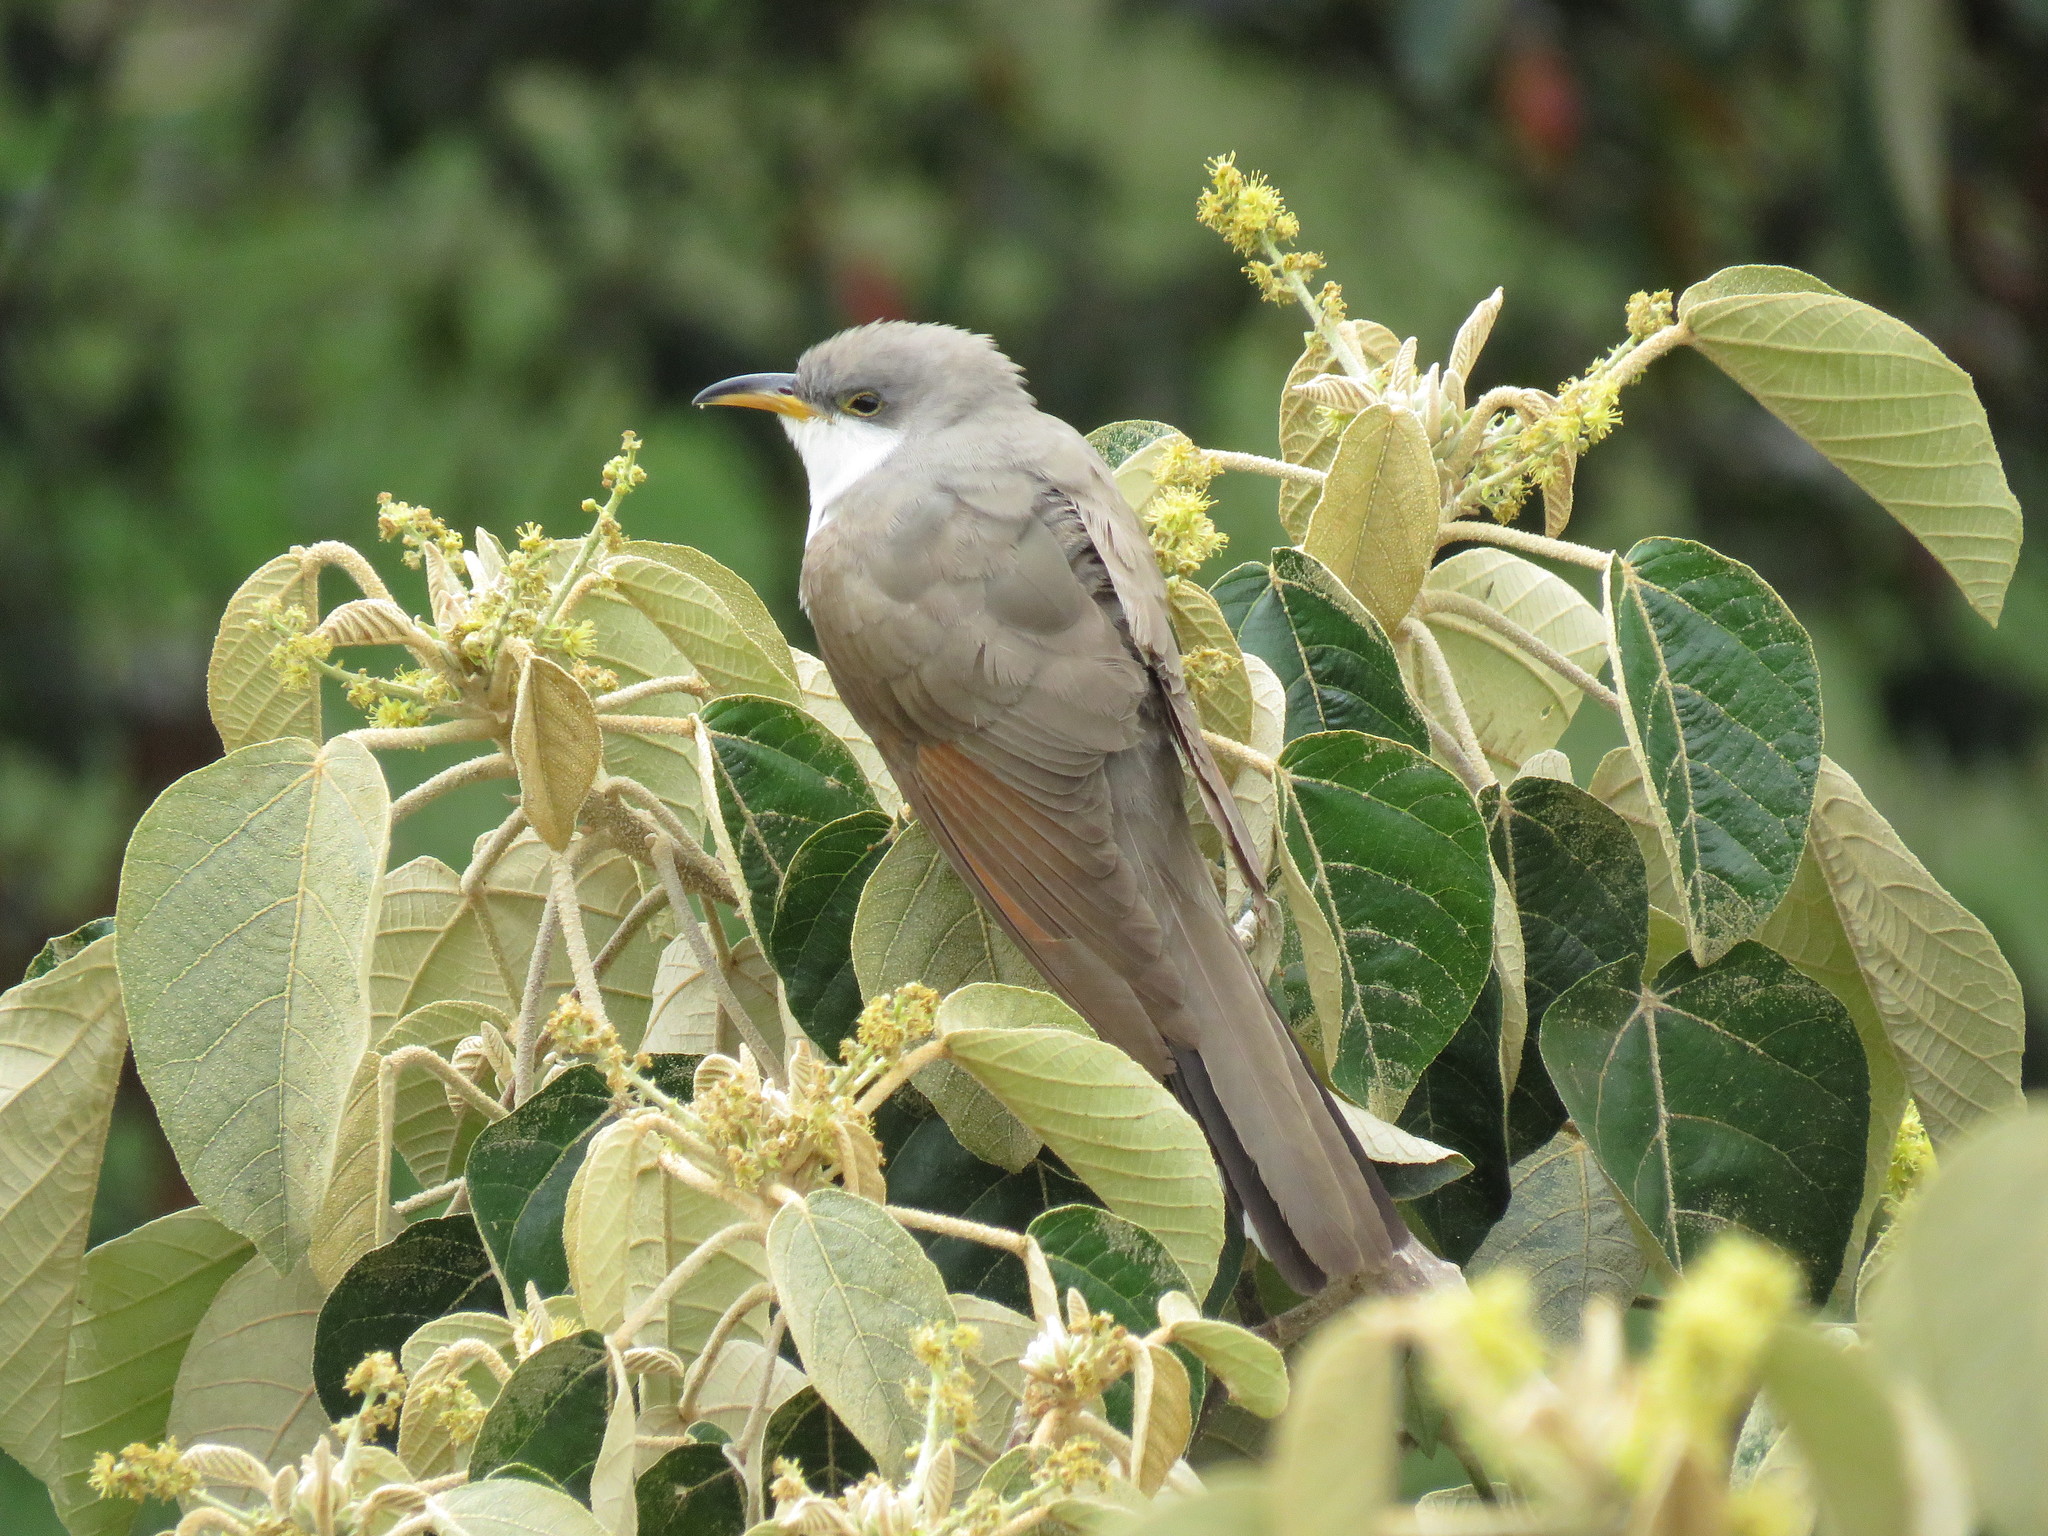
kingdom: Animalia
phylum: Chordata
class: Aves
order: Cuculiformes
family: Cuculidae
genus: Coccyzus
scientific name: Coccyzus americanus
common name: Yellow-billed cuckoo
